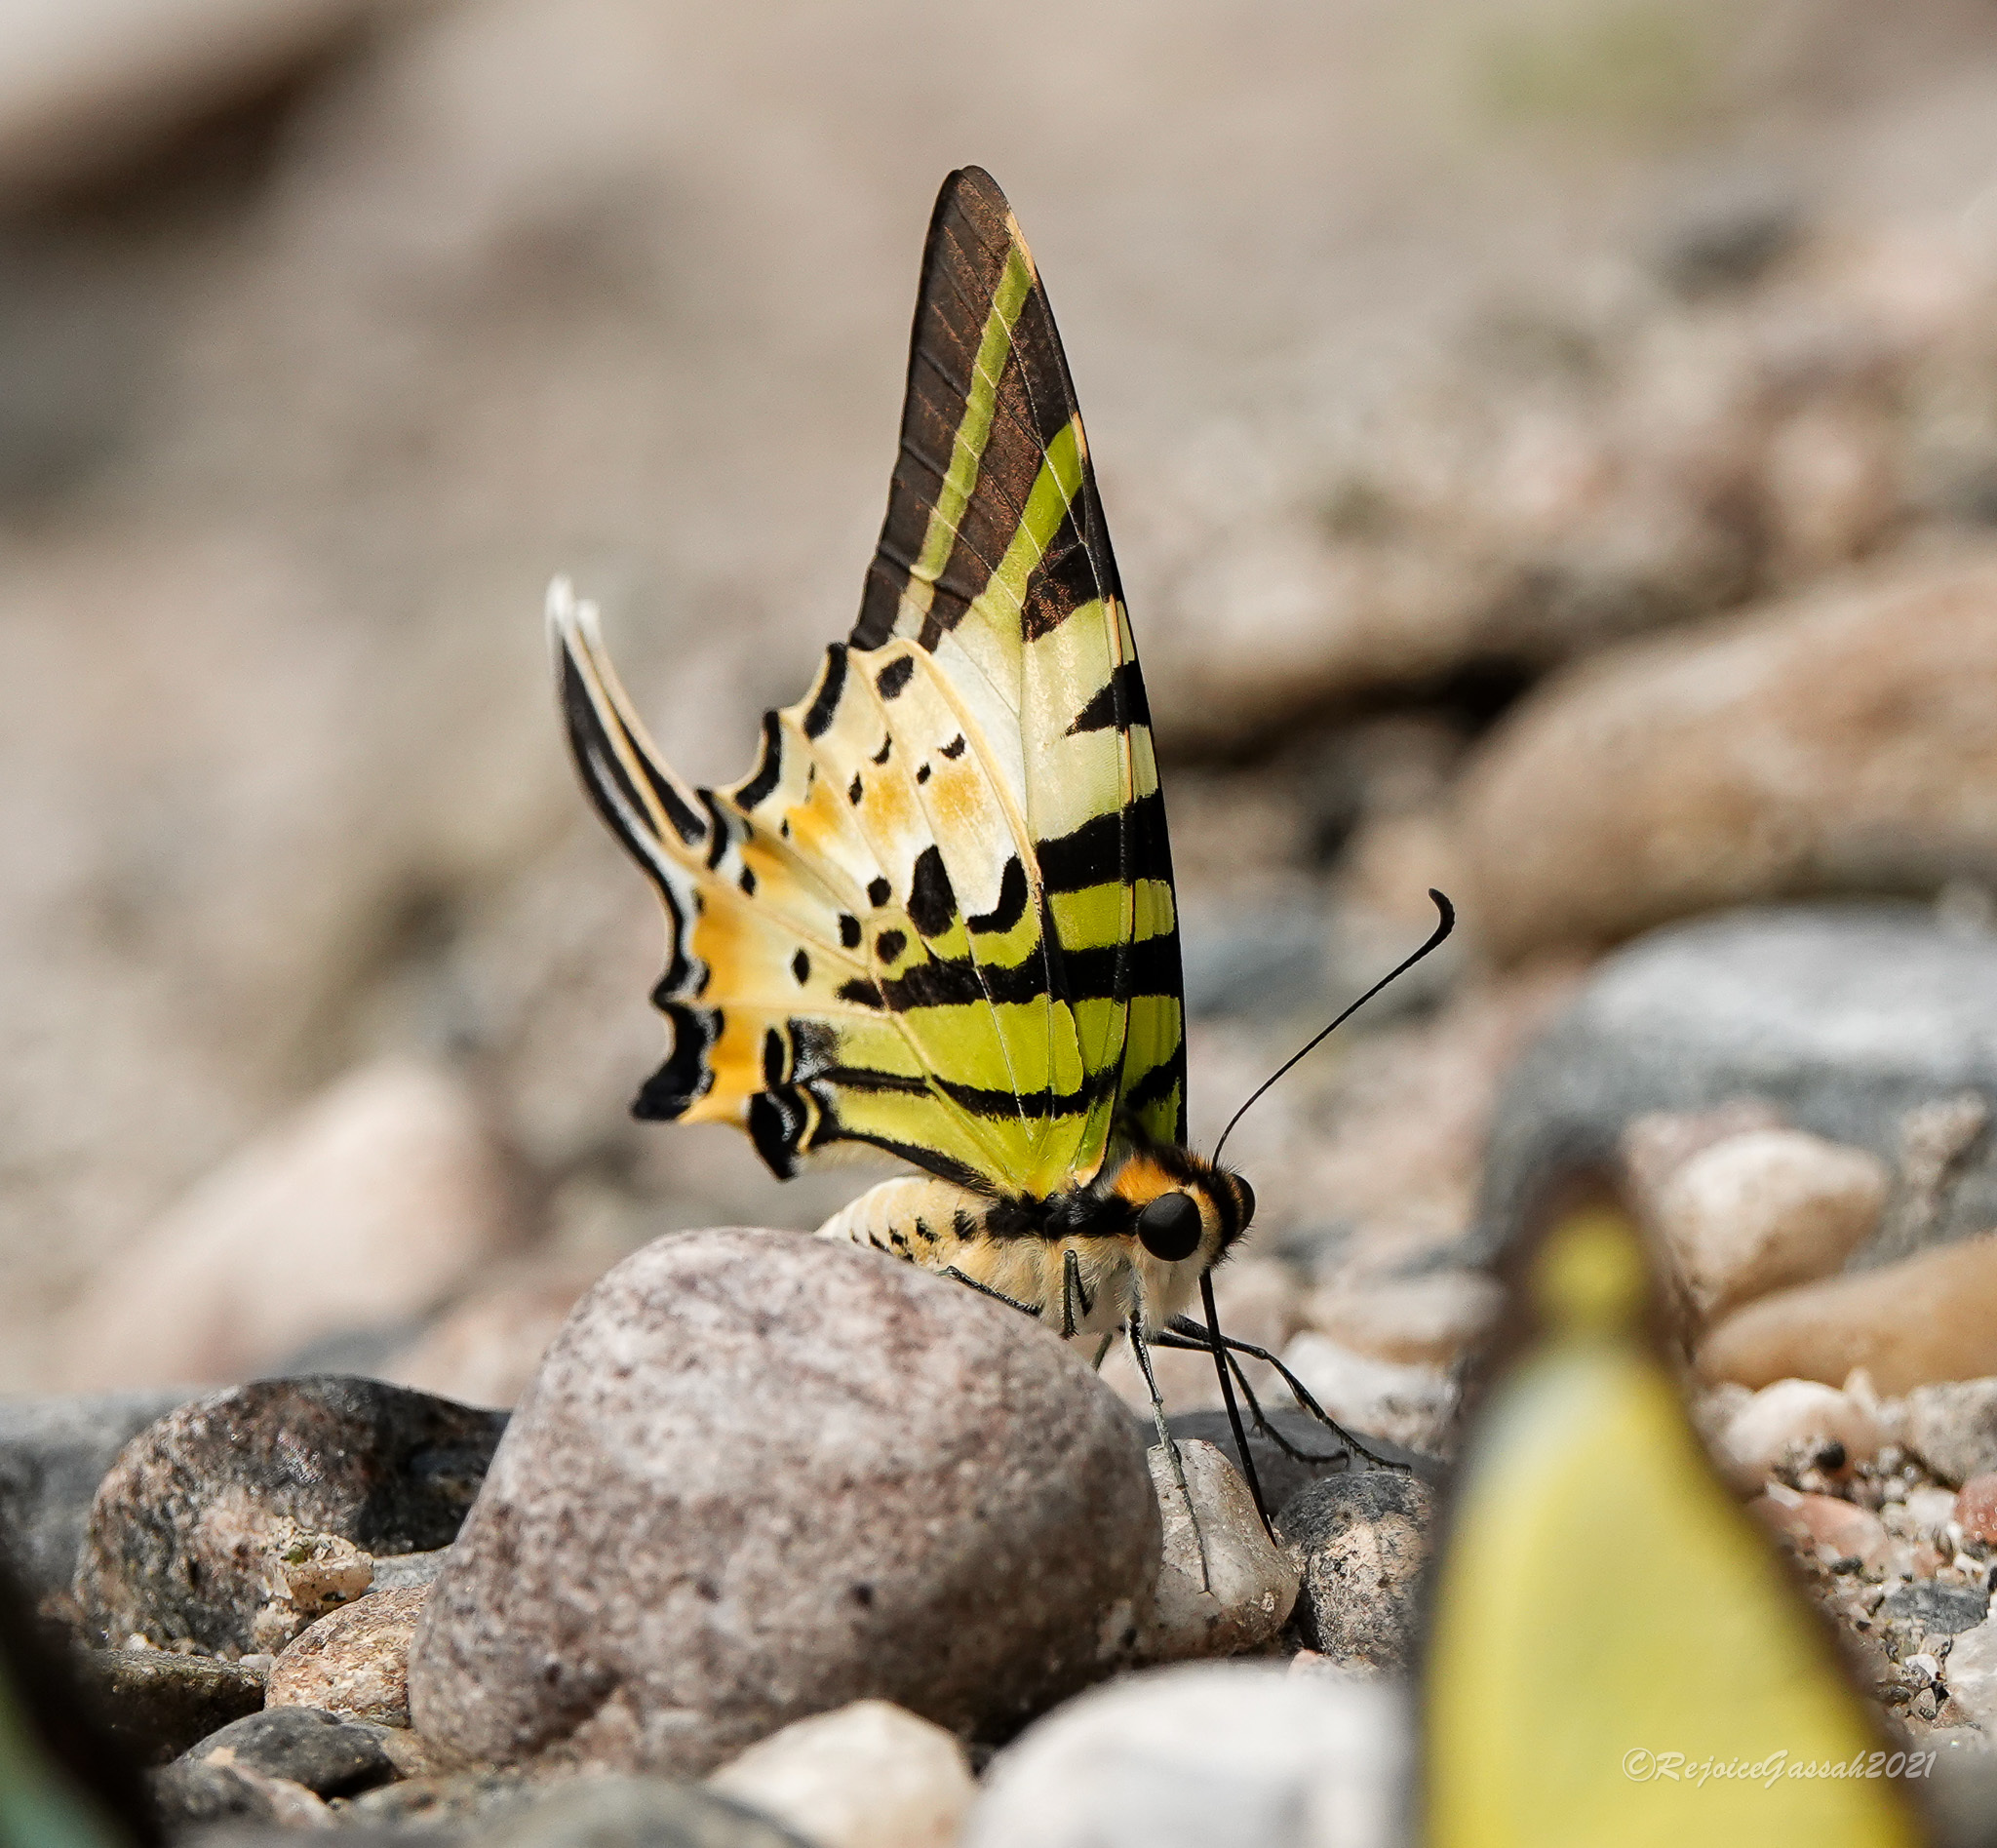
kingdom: Animalia
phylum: Arthropoda
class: Insecta
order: Lepidoptera
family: Papilionidae
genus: Graphium
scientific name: Graphium antiphates
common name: Fivebar swordtail
